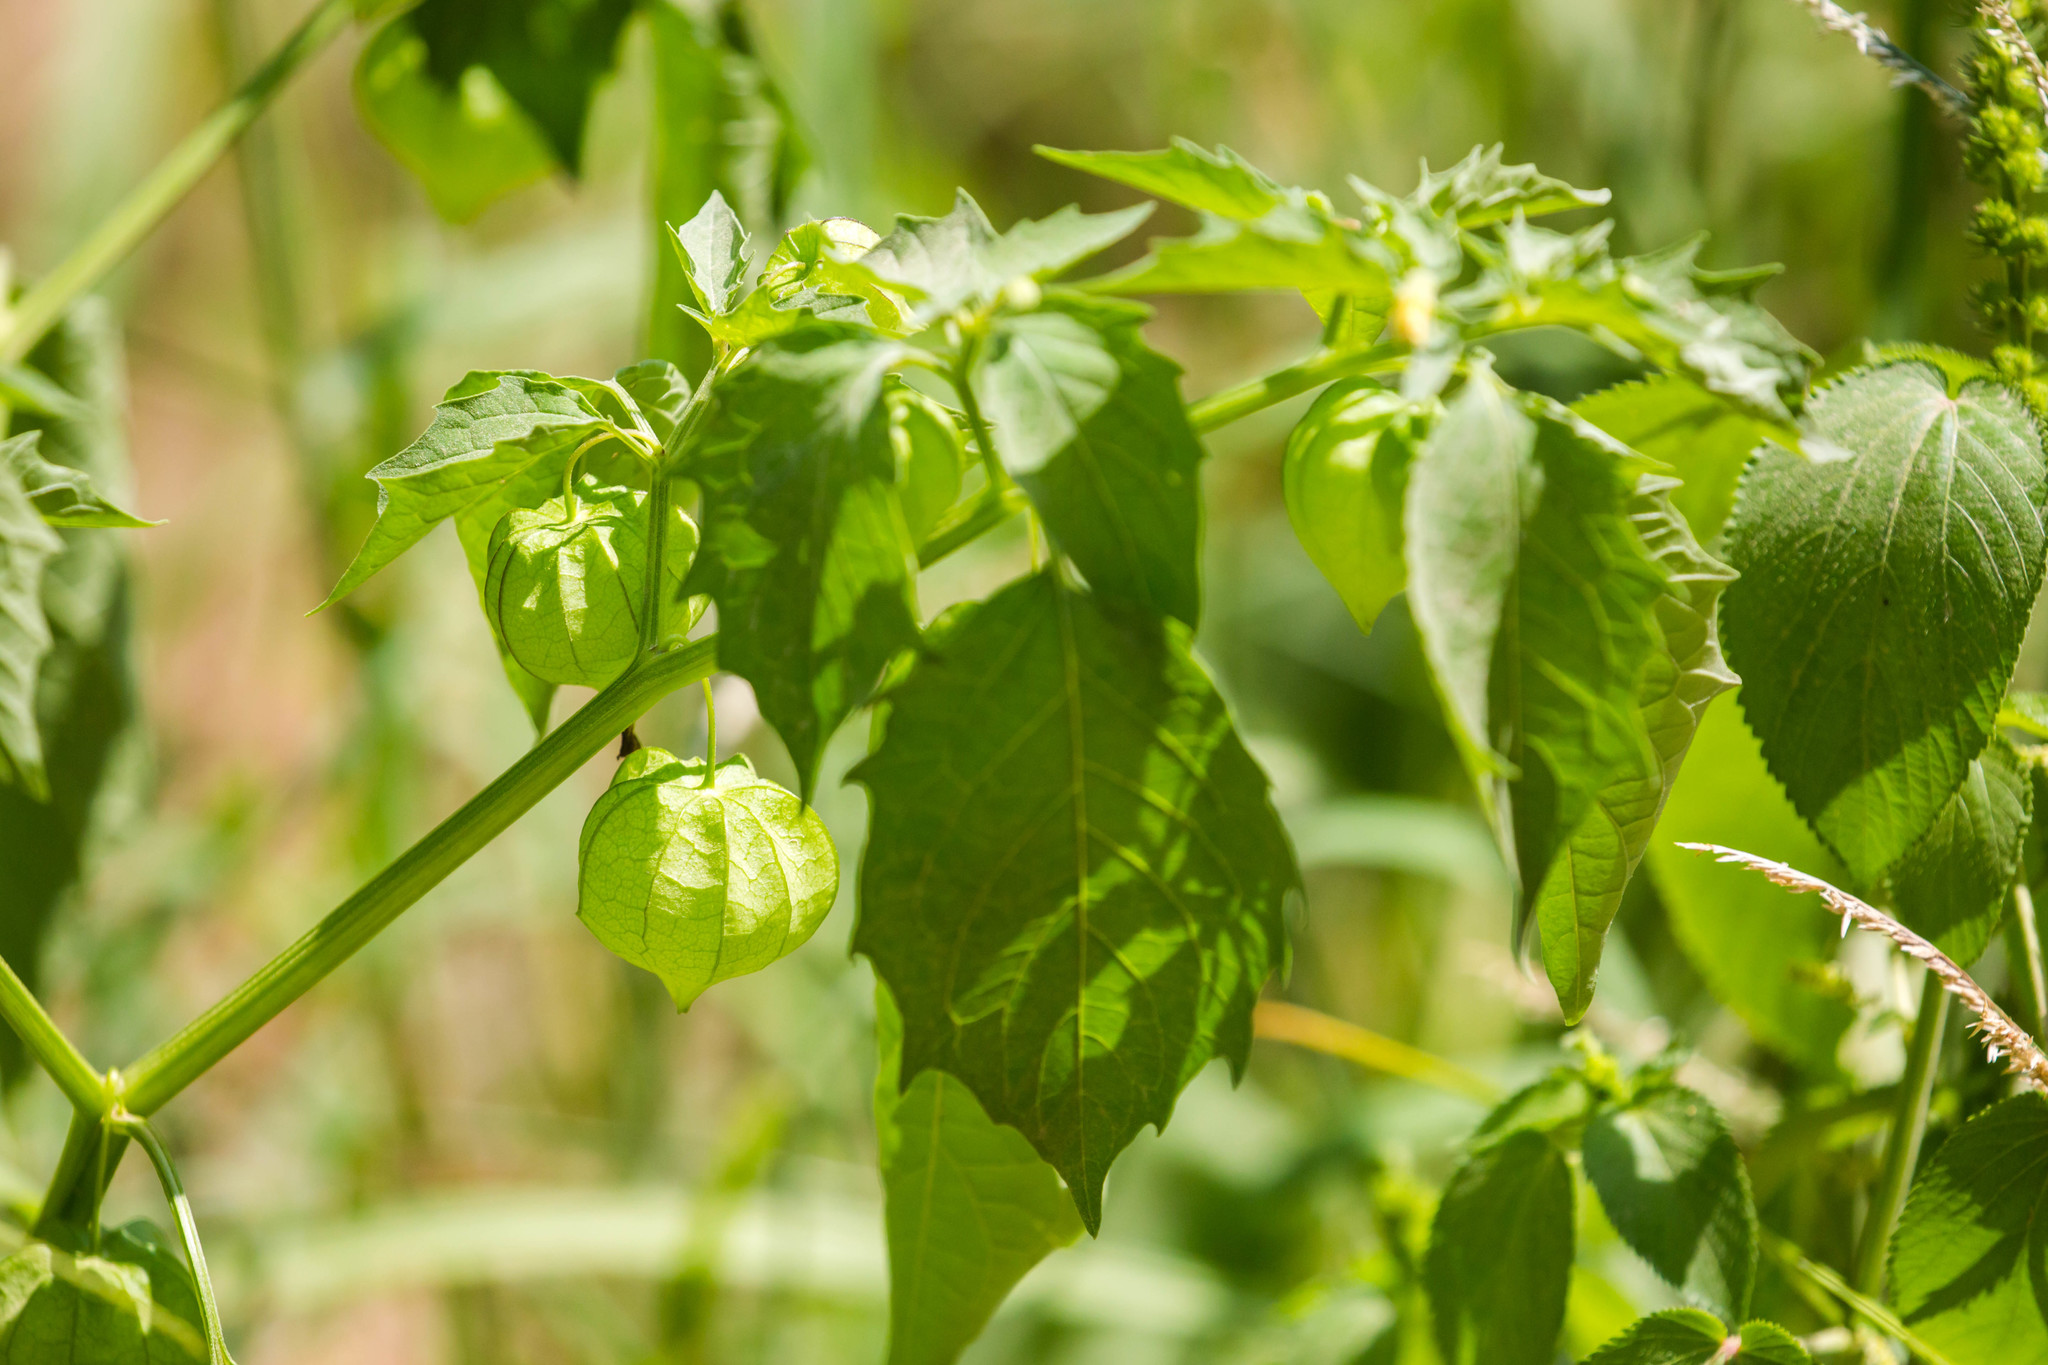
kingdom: Plantae
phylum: Tracheophyta
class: Magnoliopsida
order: Solanales
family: Solanaceae
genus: Physalis
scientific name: Physalis angulata
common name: Angular winter-cherry
